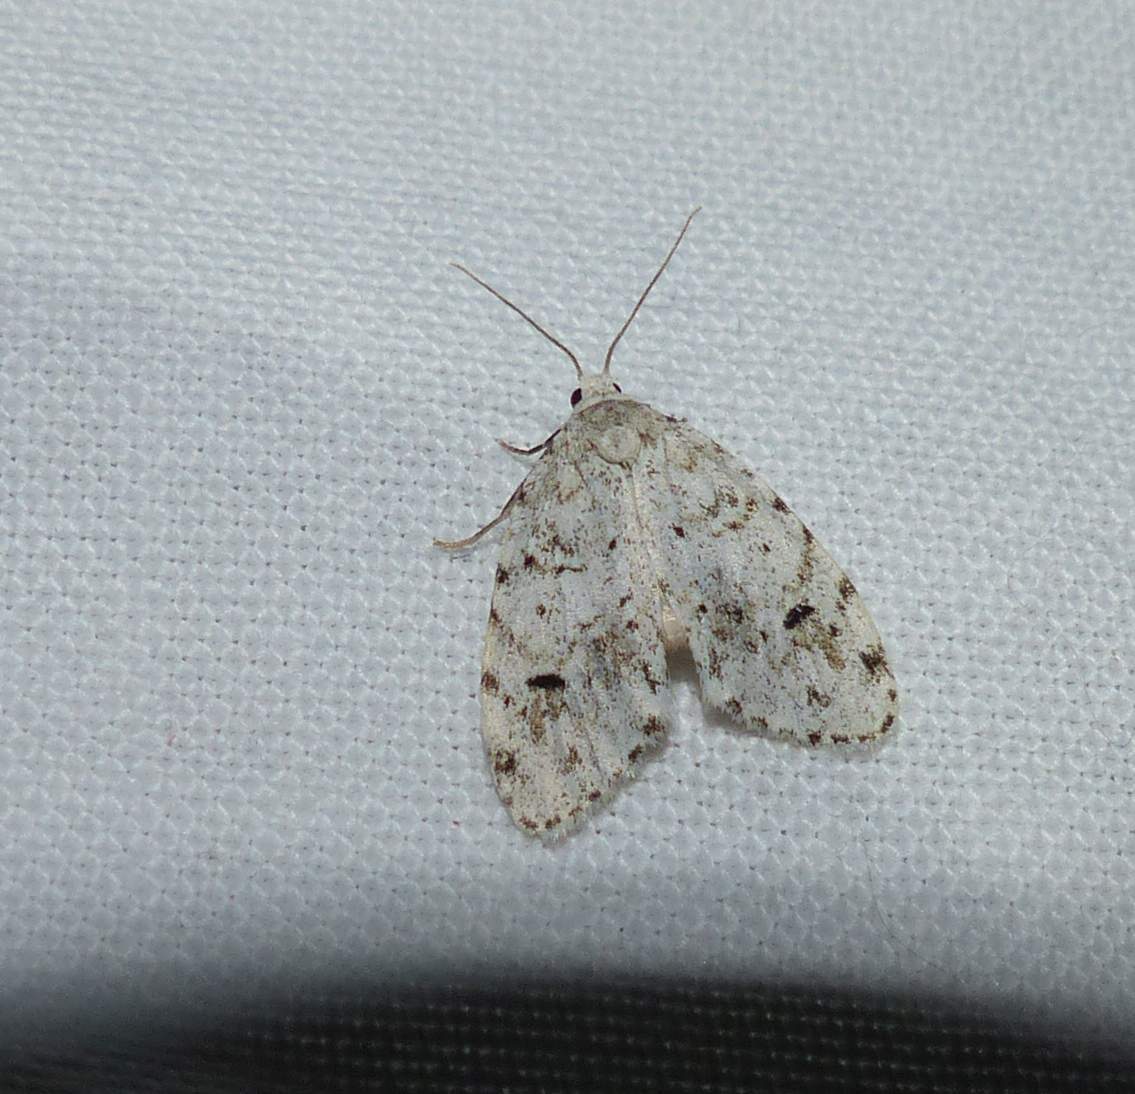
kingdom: Animalia
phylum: Arthropoda
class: Insecta
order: Lepidoptera
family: Erebidae
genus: Clemensia
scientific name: Clemensia albata
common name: Little white lichen moth
